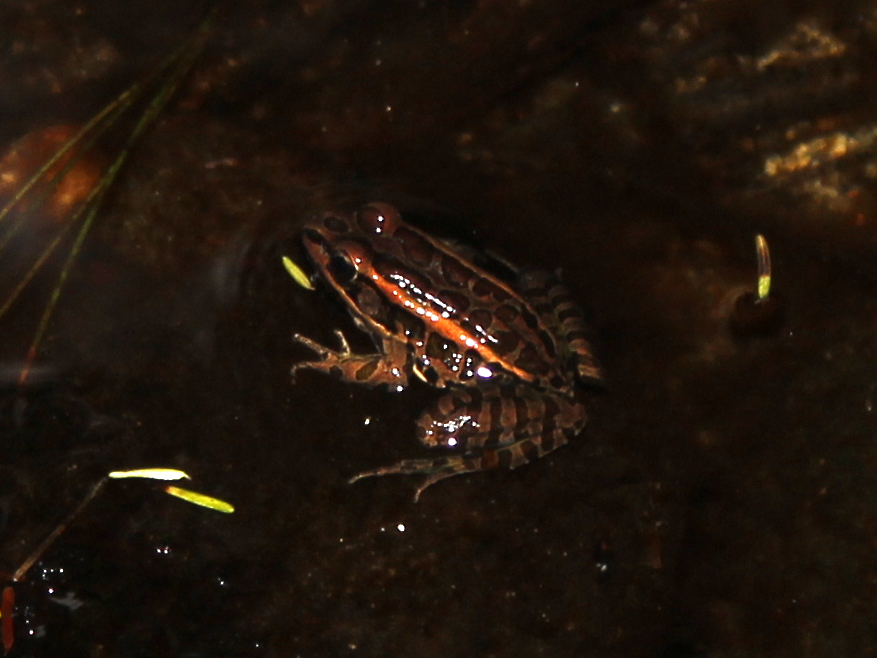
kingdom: Animalia
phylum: Chordata
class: Amphibia
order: Anura
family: Ranidae
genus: Lithobates
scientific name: Lithobates palustris
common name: Pickerel frog
